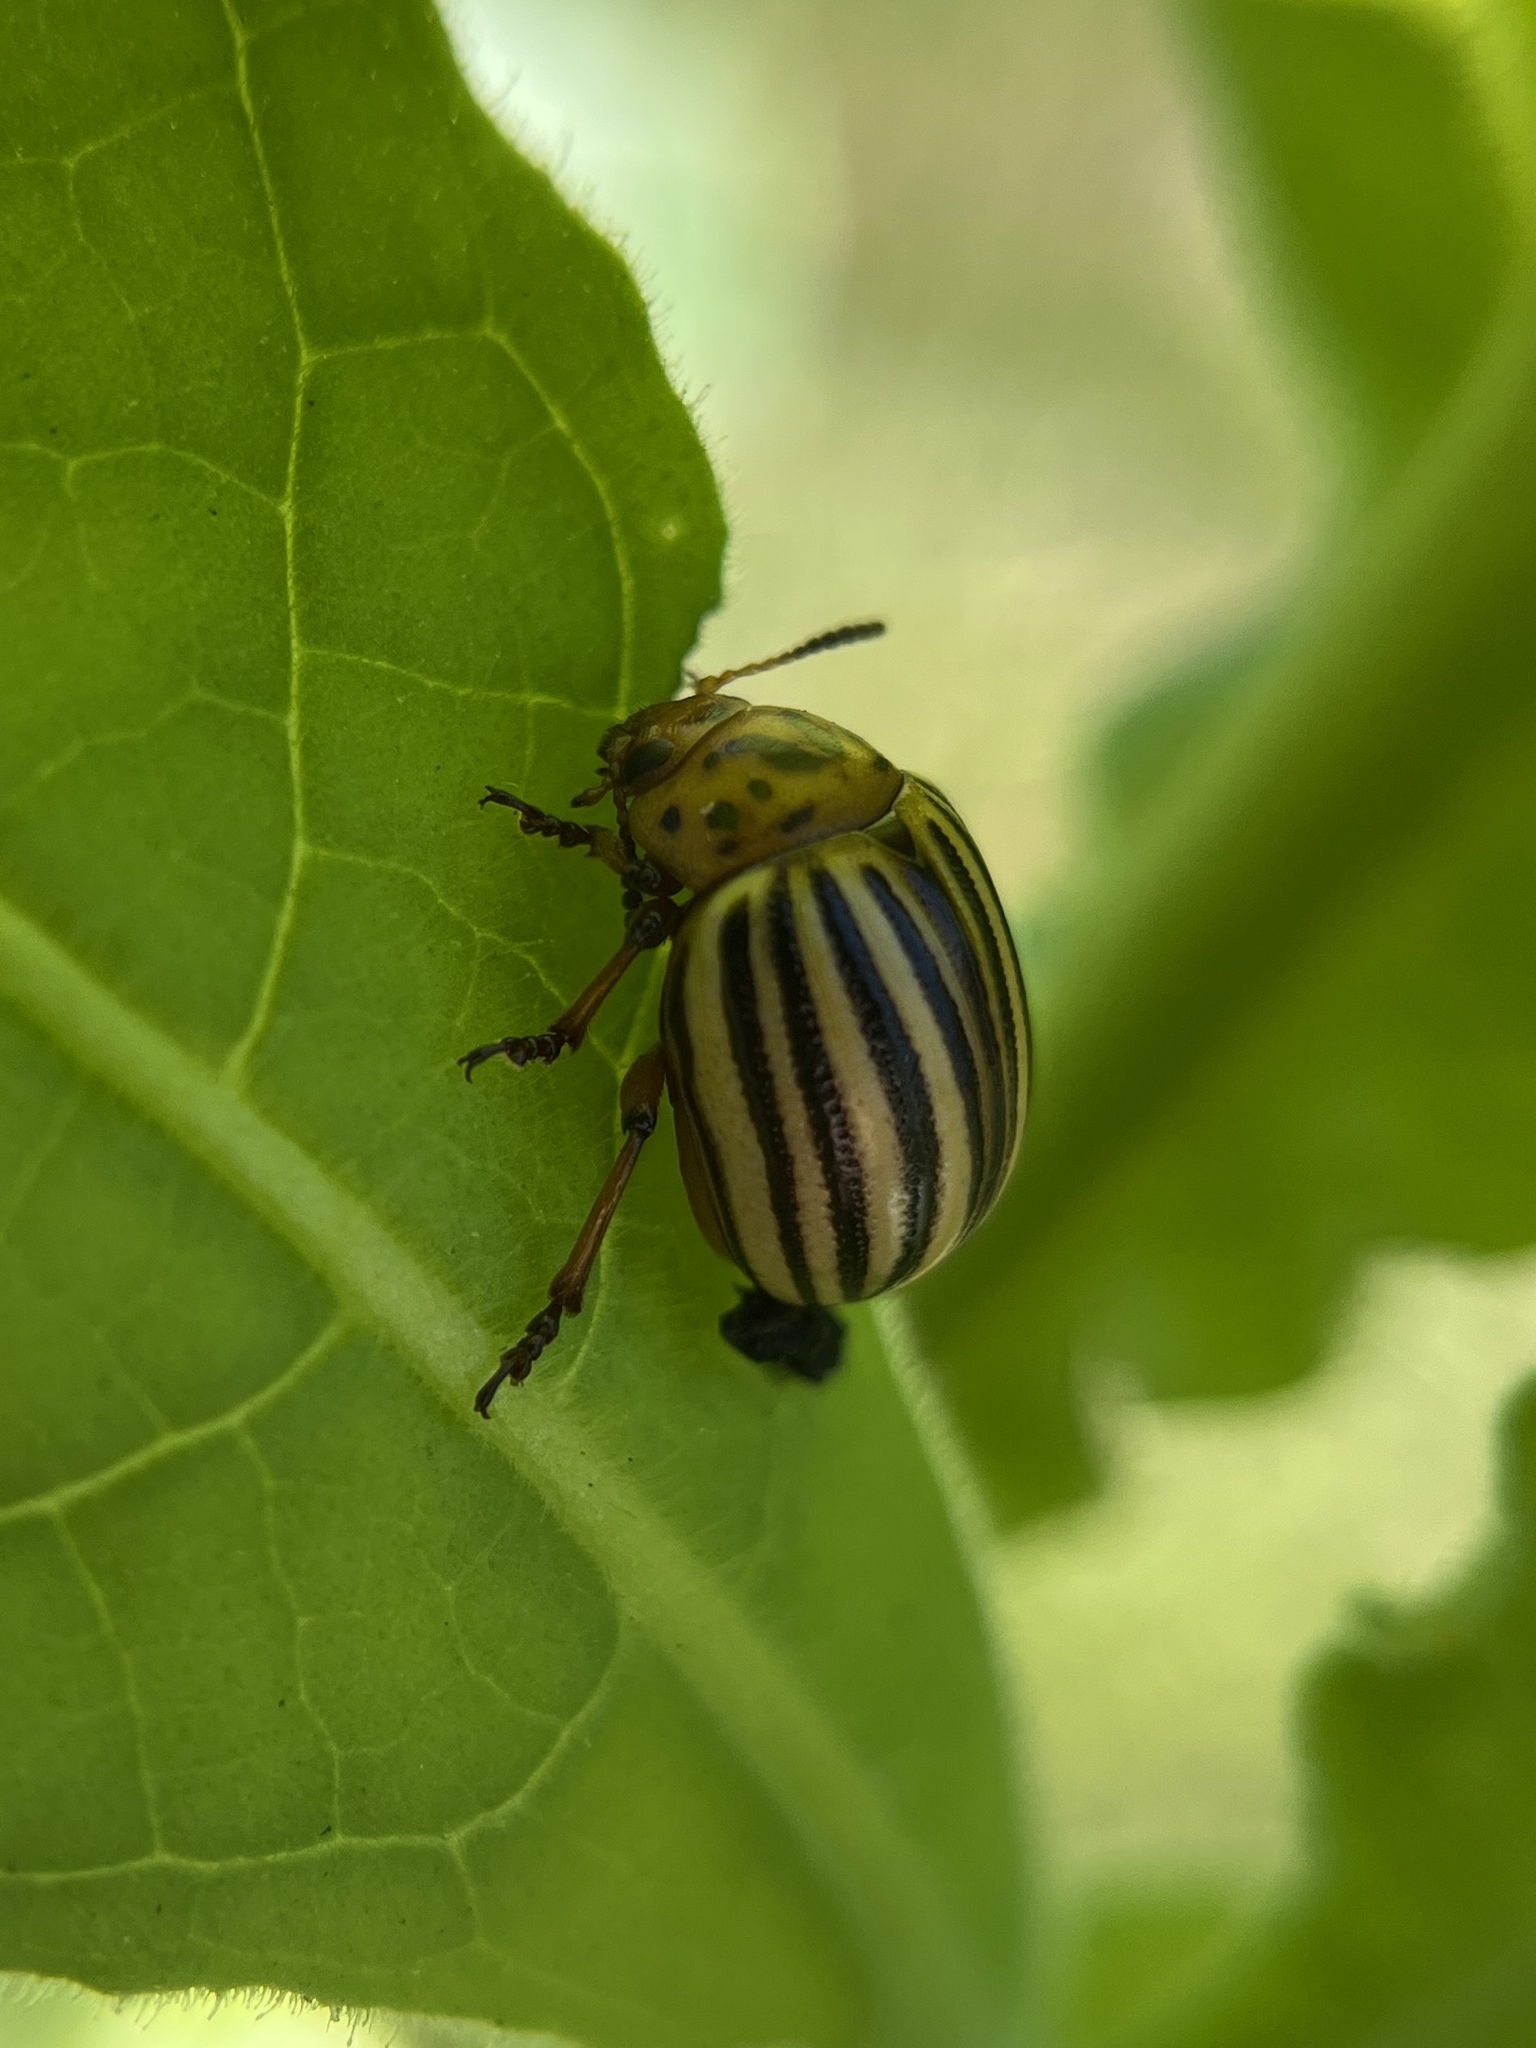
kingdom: Animalia
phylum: Arthropoda
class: Insecta
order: Coleoptera
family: Chrysomelidae
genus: Leptinotarsa
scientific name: Leptinotarsa decemlineata
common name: Colorado potato beetle
